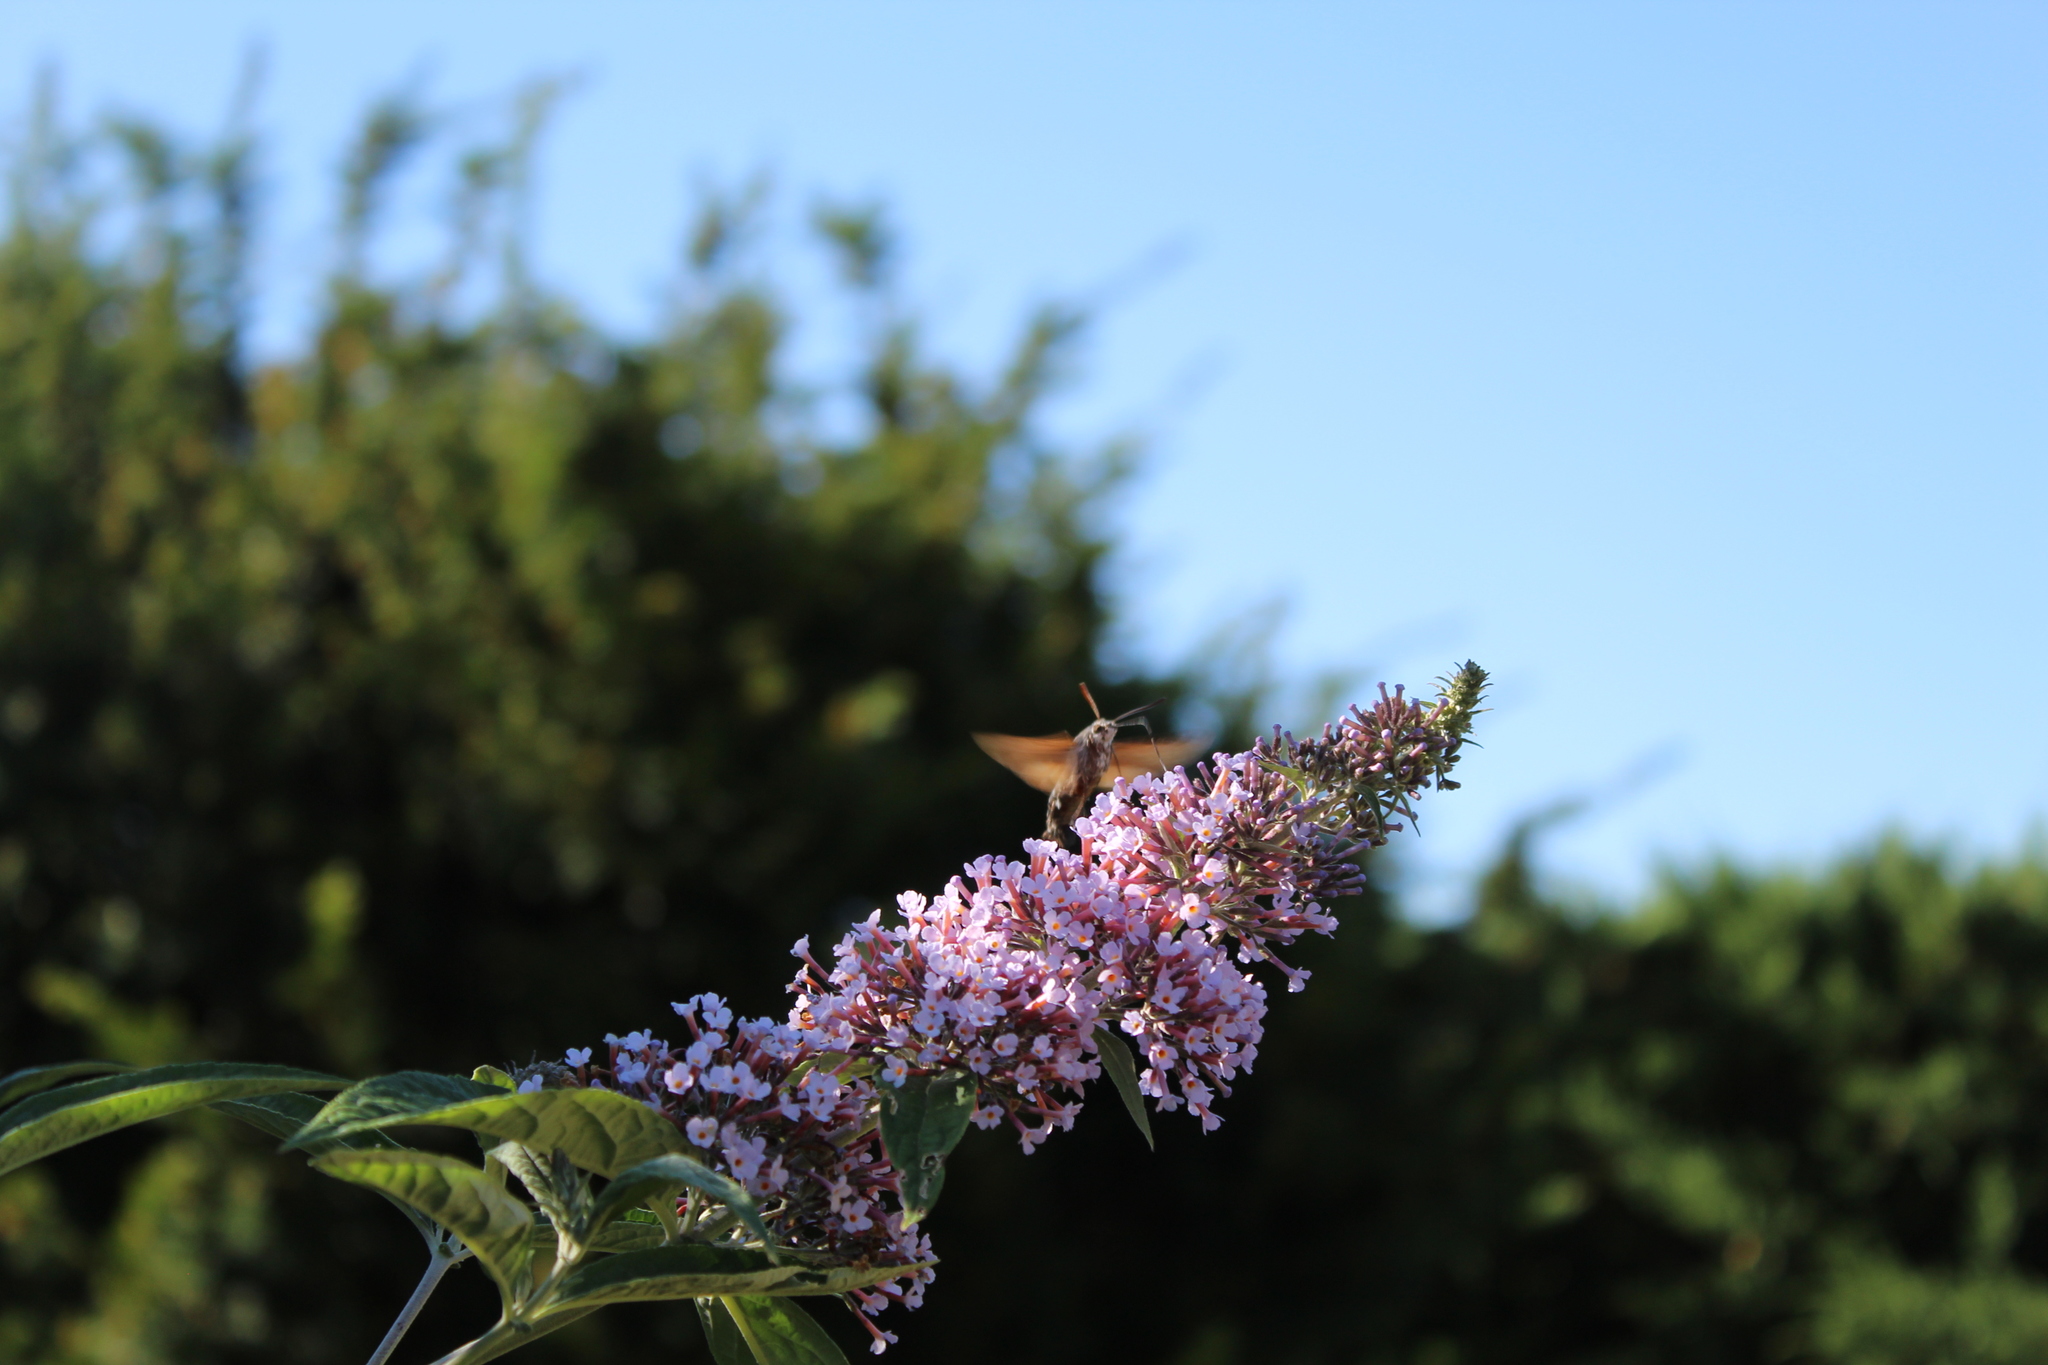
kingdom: Animalia
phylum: Arthropoda
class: Insecta
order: Lepidoptera
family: Sphingidae
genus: Macroglossum
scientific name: Macroglossum stellatarum
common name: Humming-bird hawk-moth
